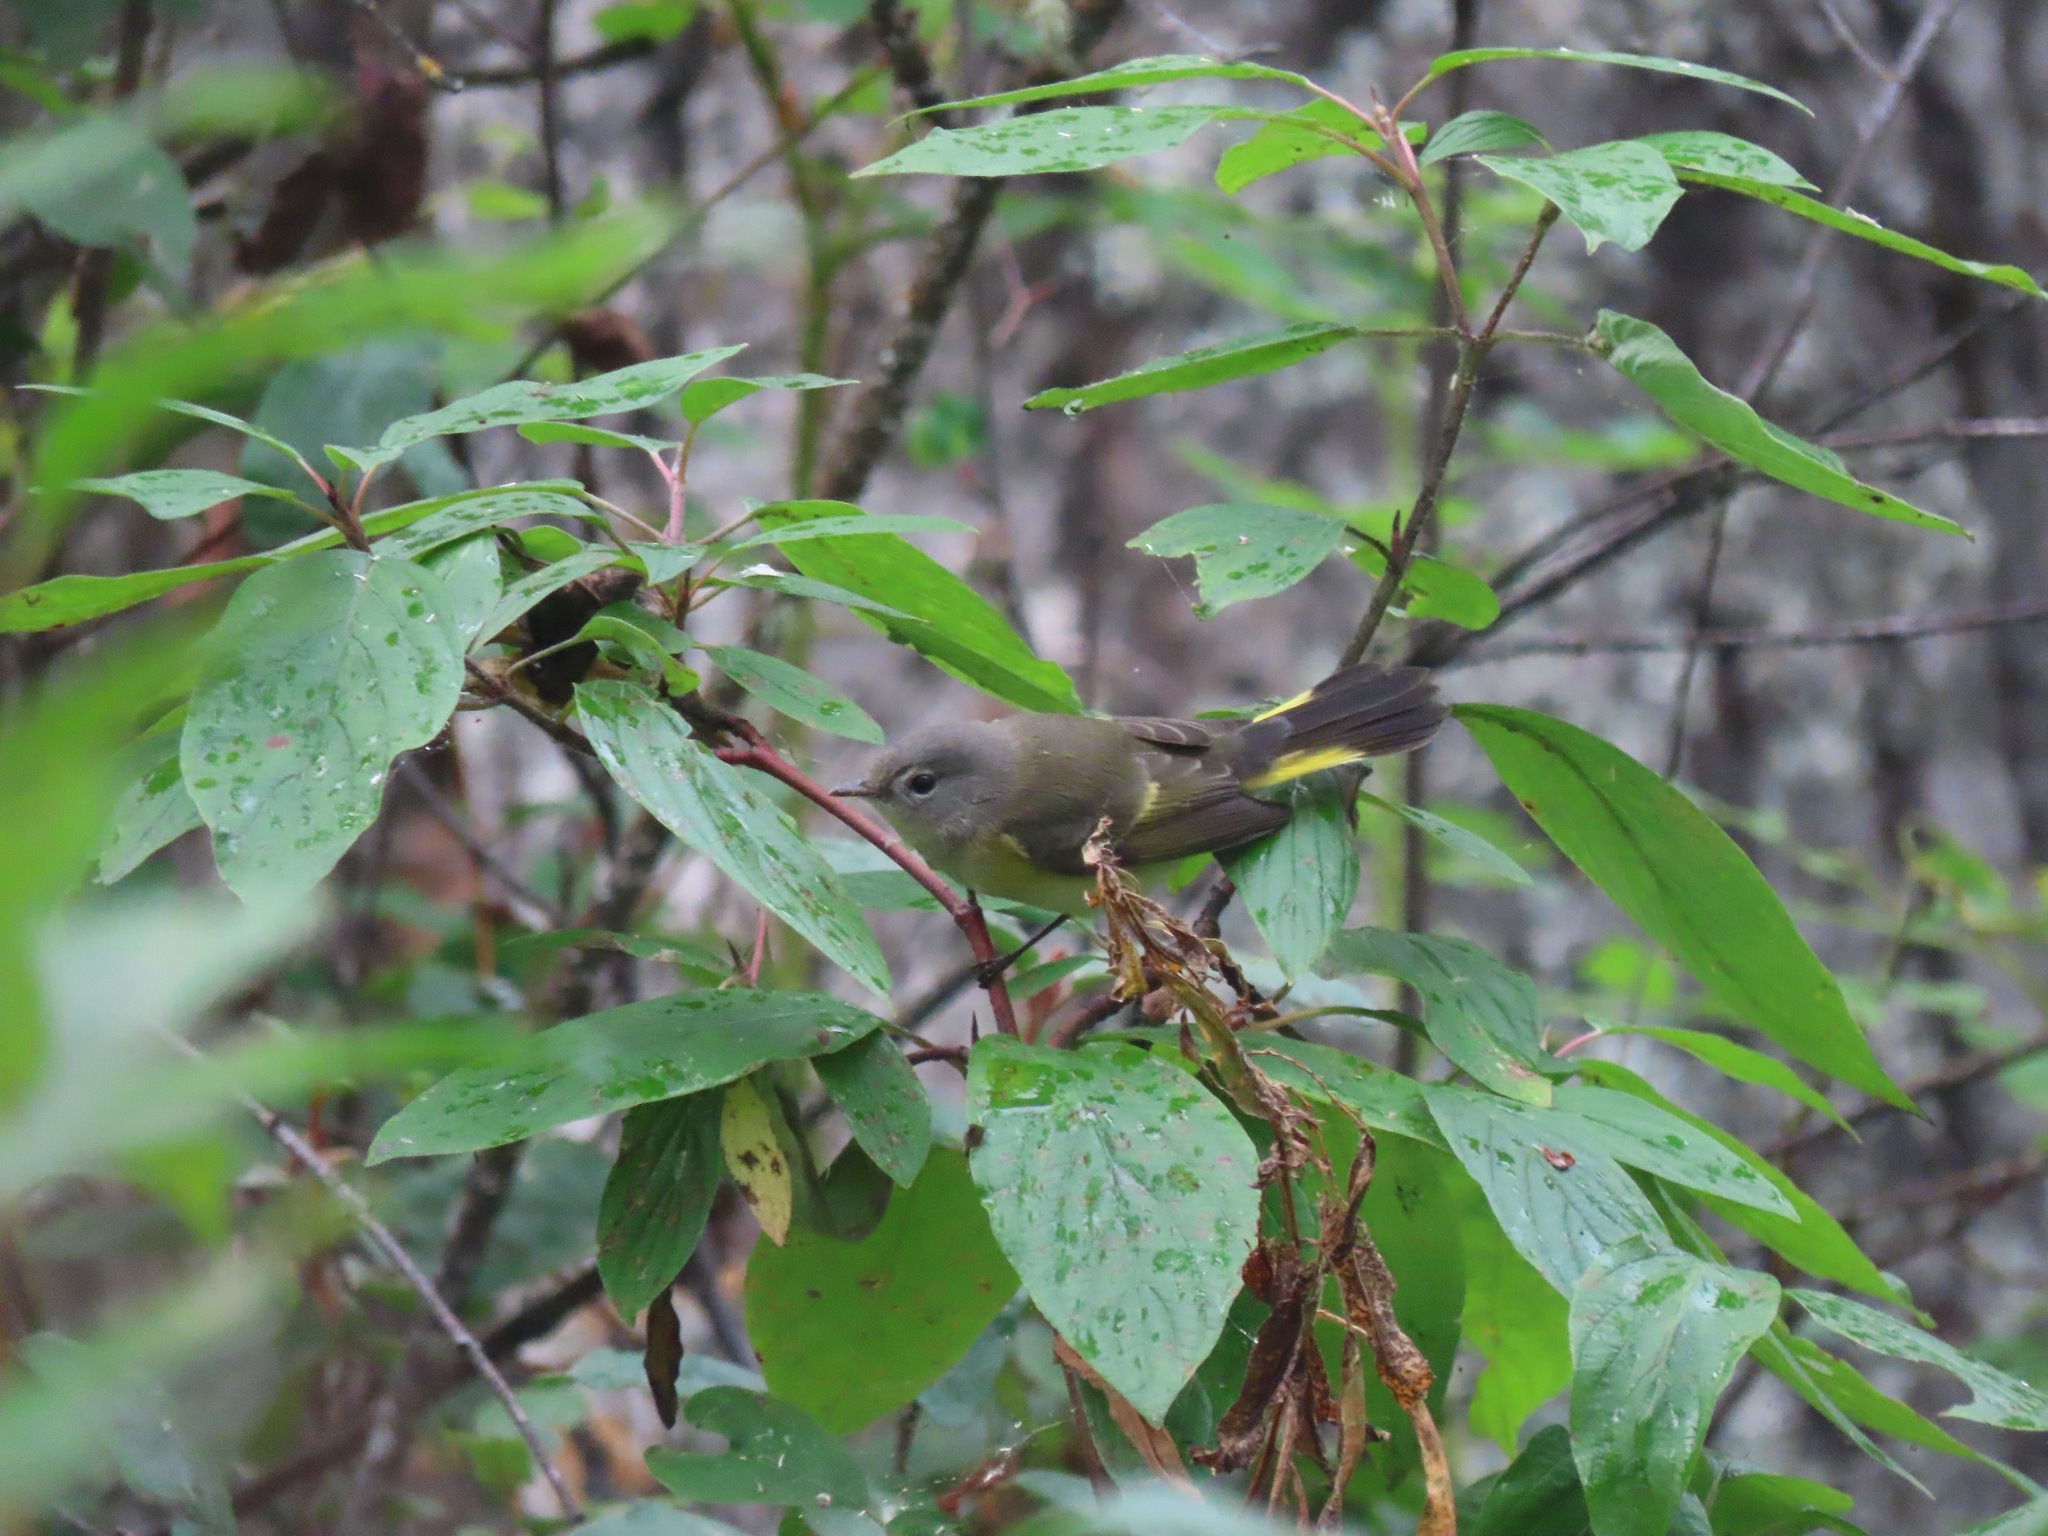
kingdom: Animalia
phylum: Chordata
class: Aves
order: Passeriformes
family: Parulidae
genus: Setophaga
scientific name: Setophaga ruticilla
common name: American redstart
